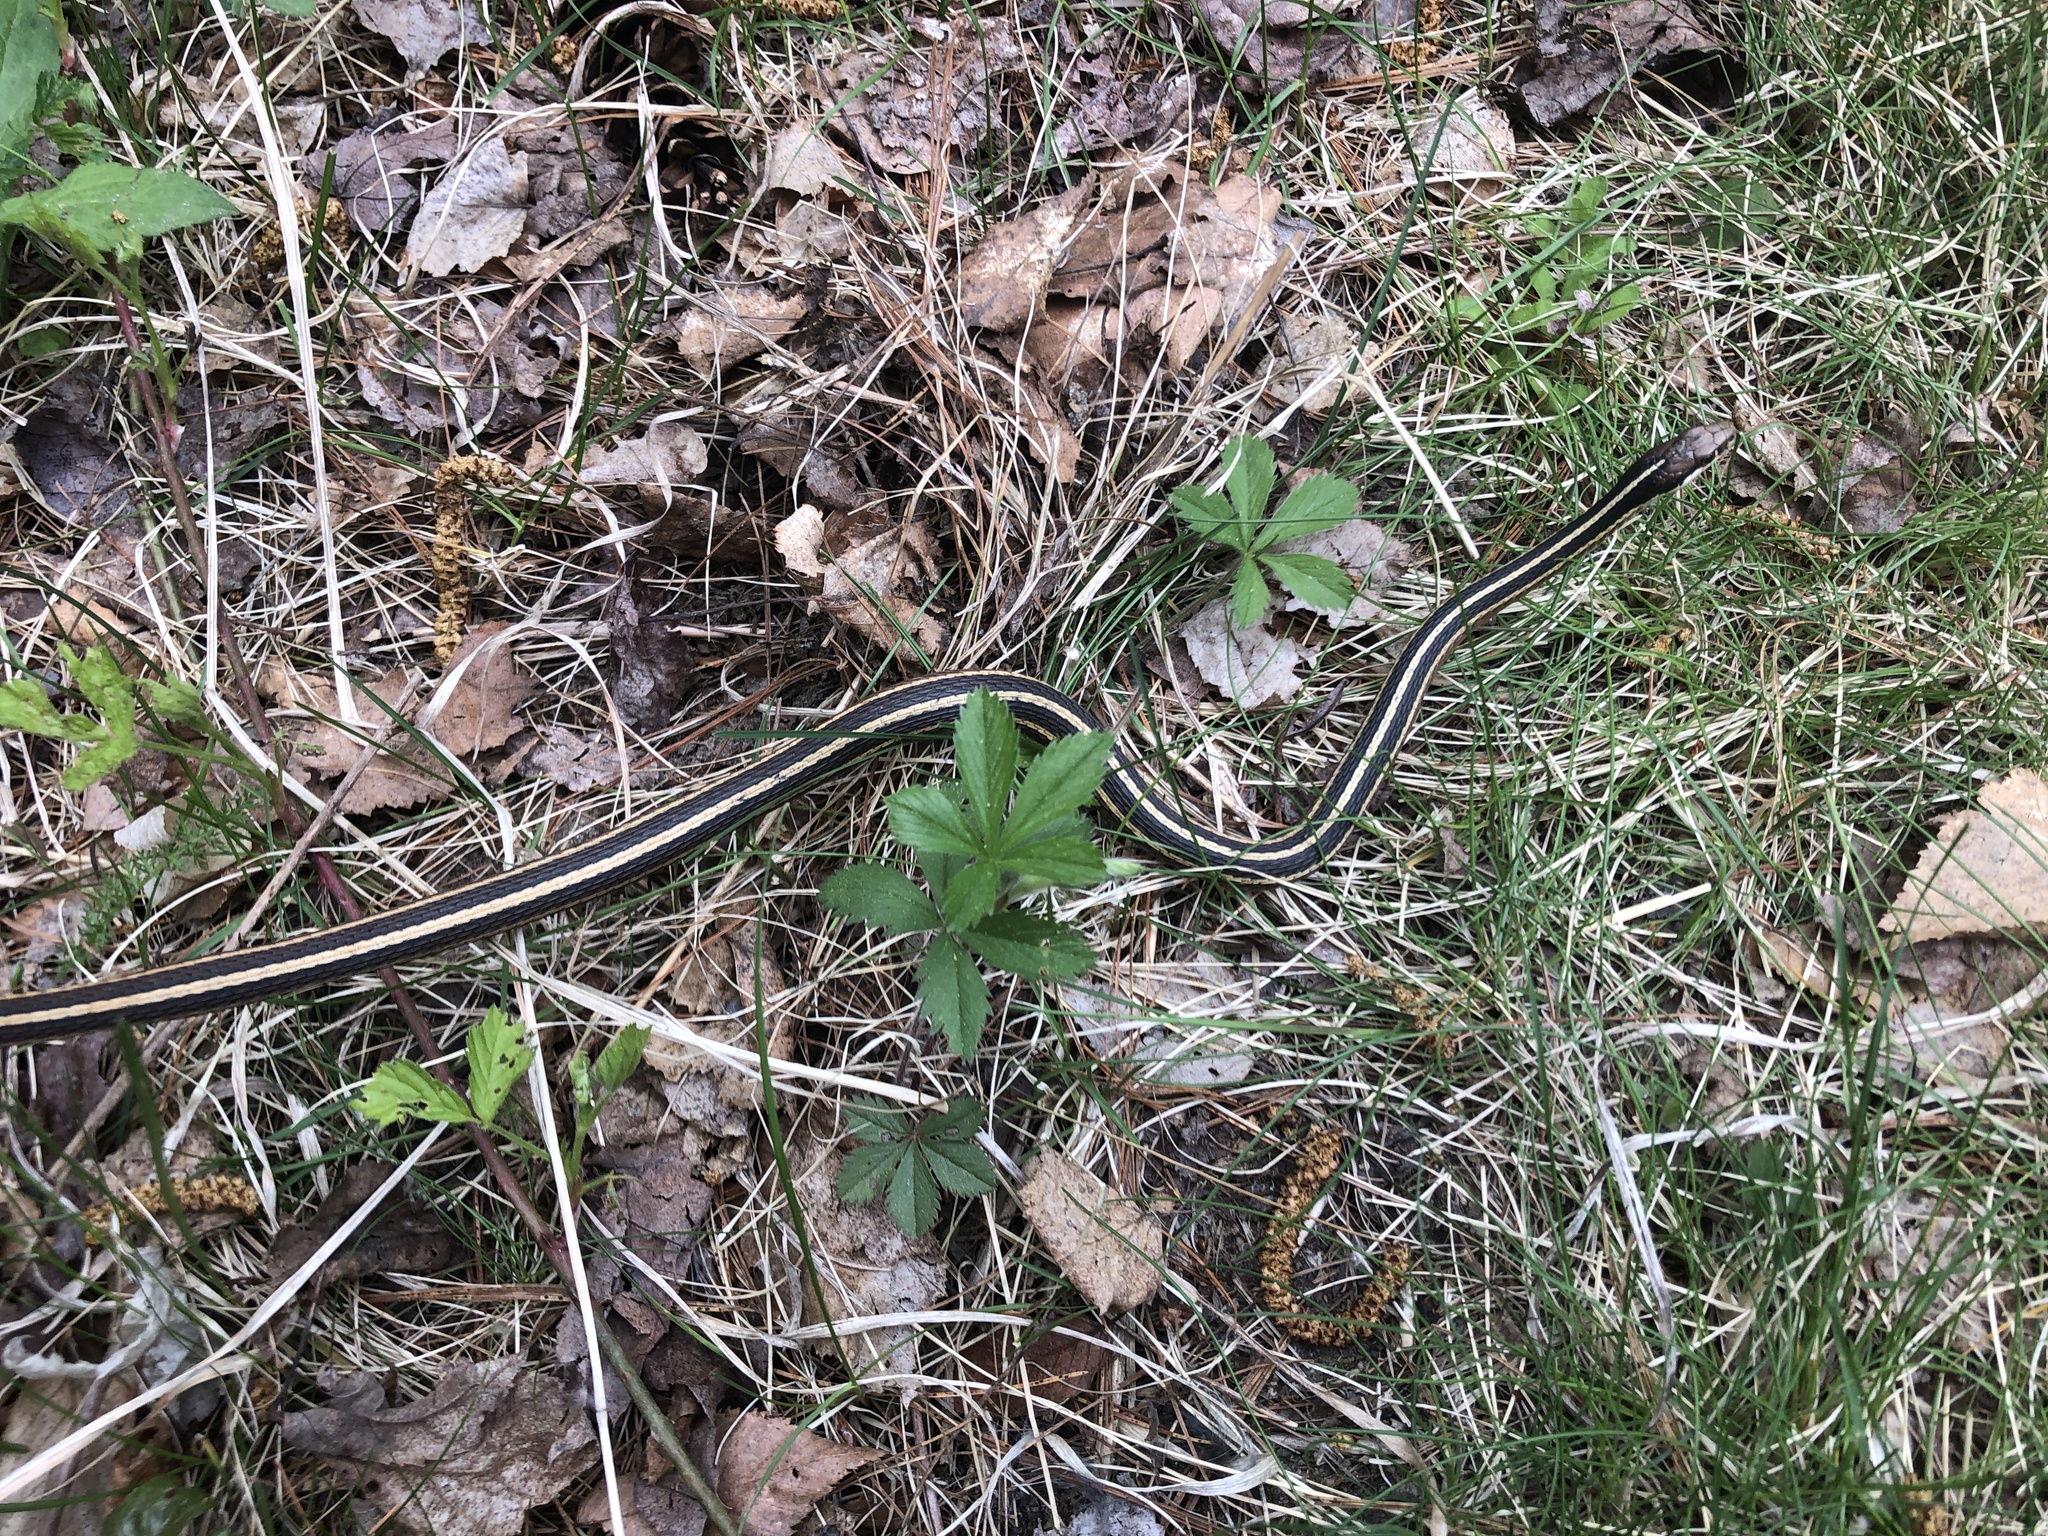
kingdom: Animalia
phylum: Chordata
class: Squamata
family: Colubridae
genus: Thamnophis
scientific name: Thamnophis saurita
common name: Eastern ribbonsnake
